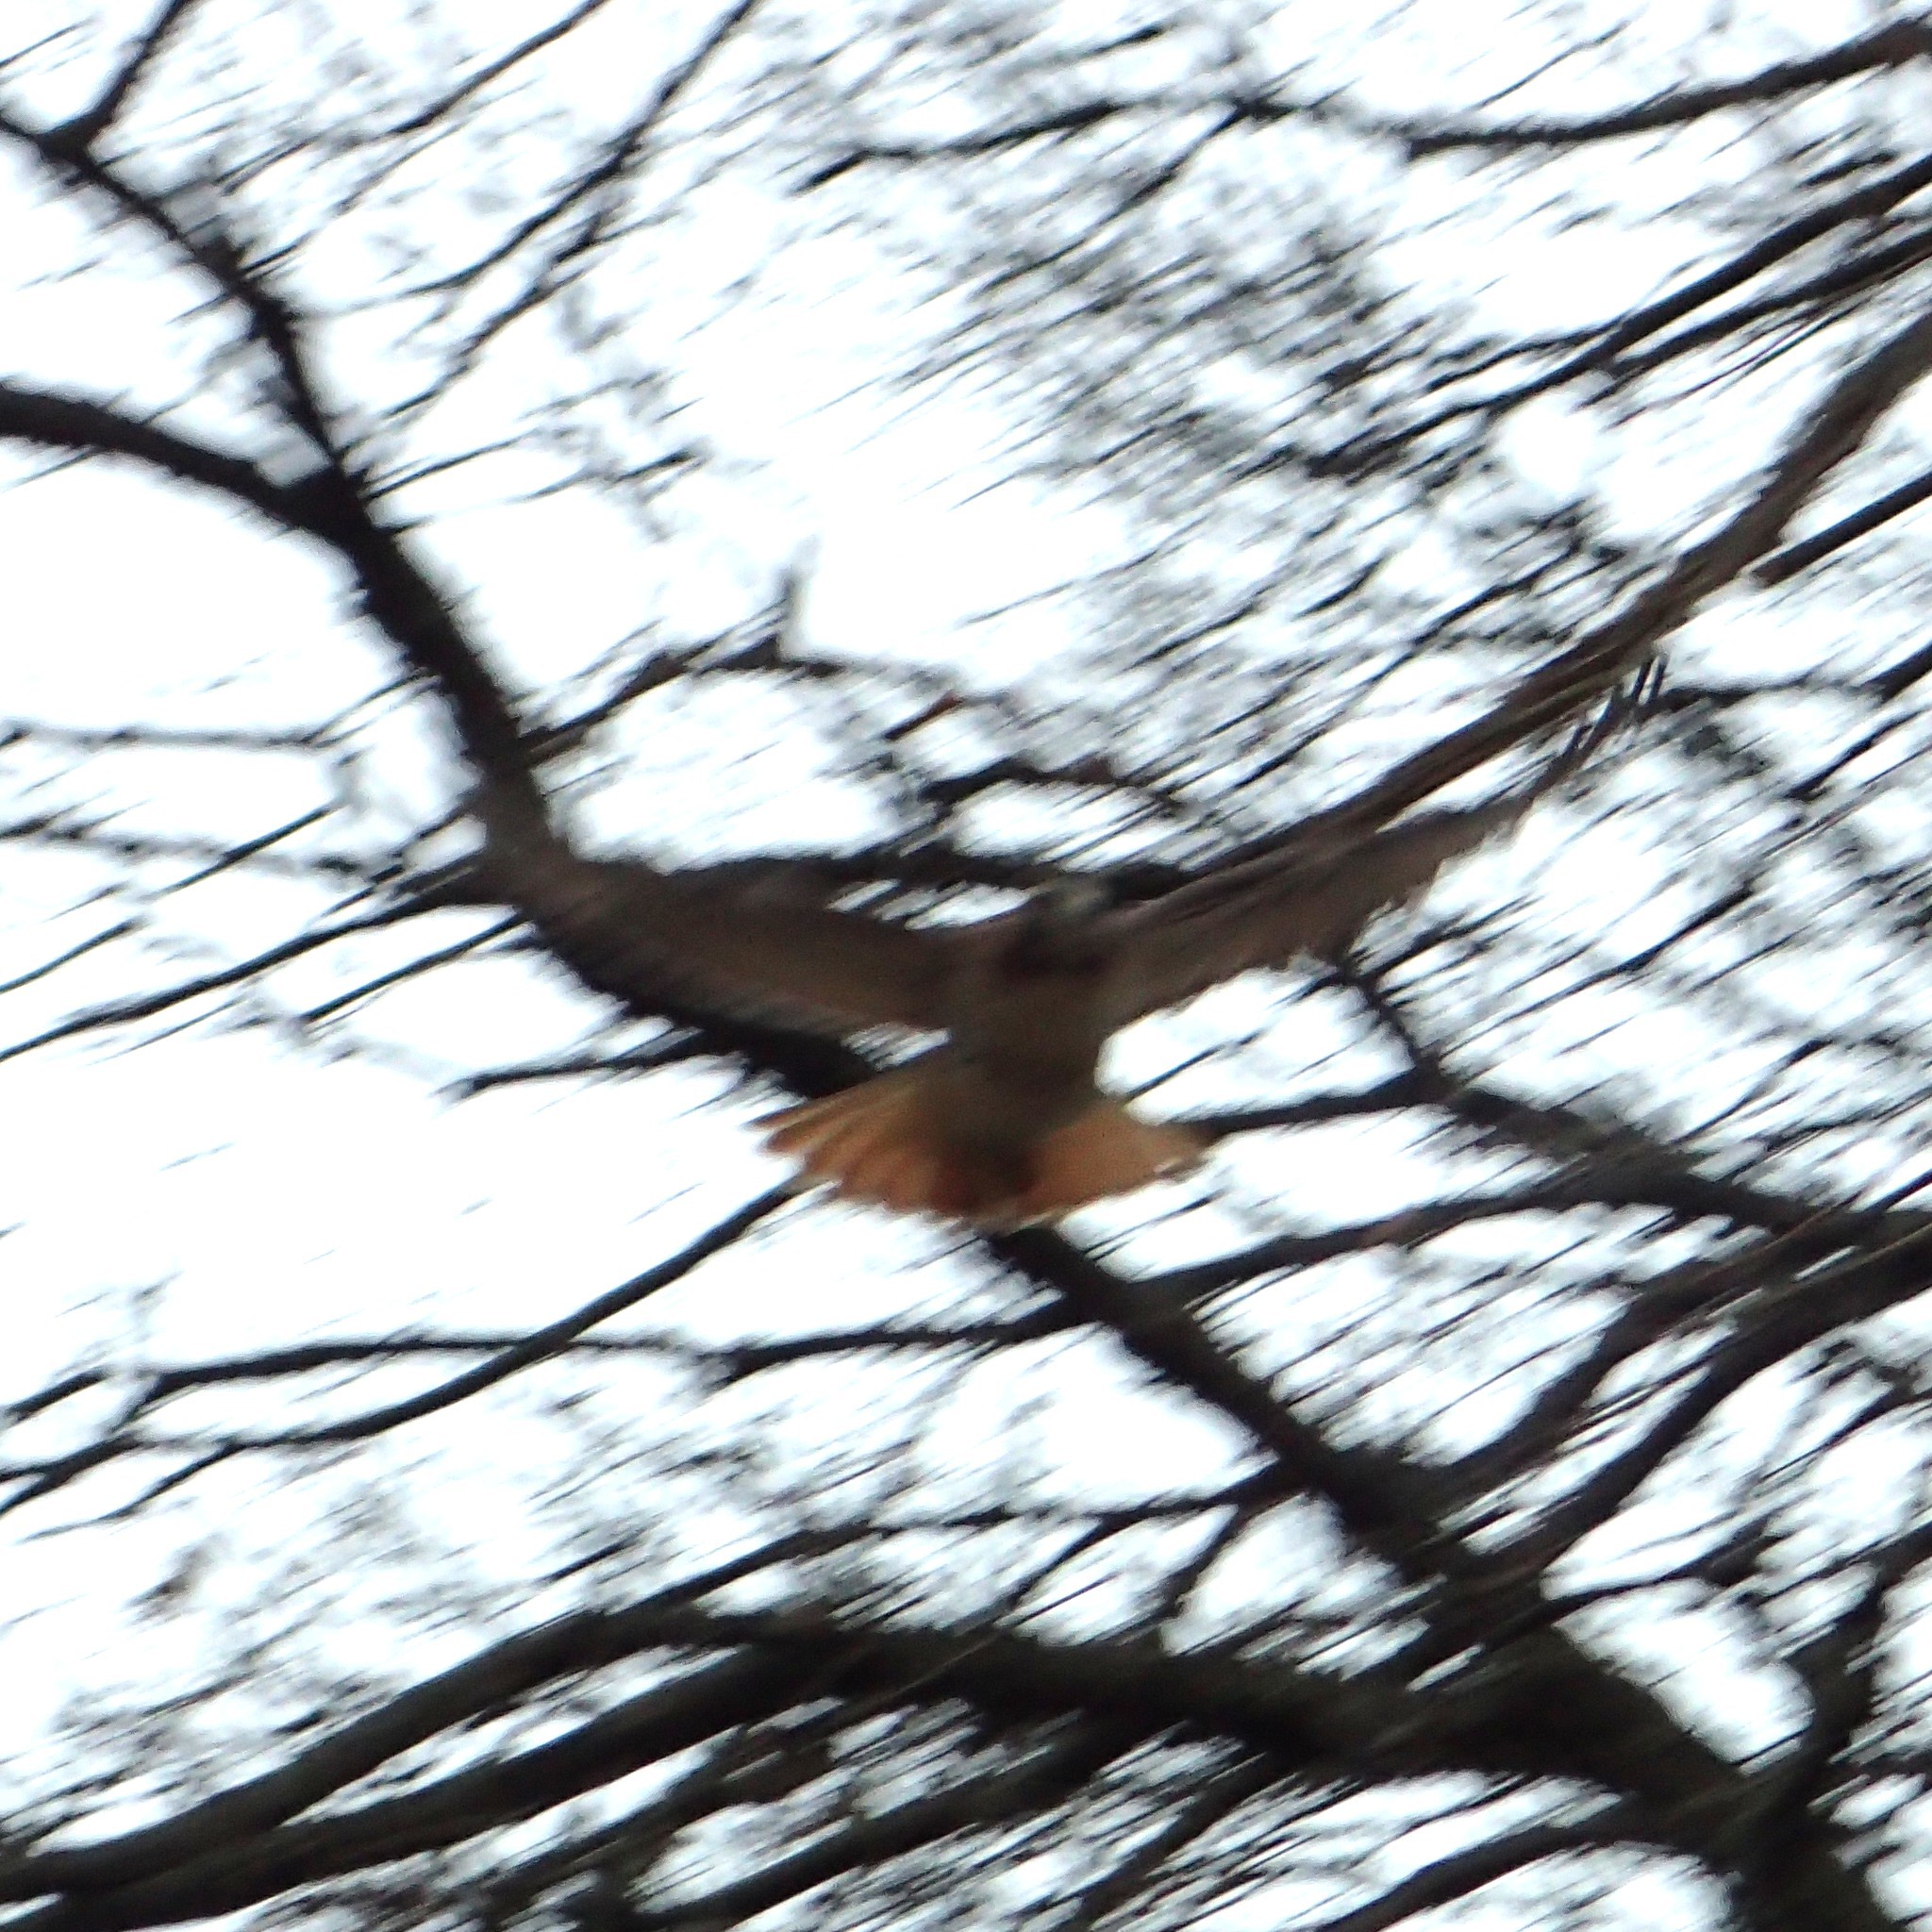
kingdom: Animalia
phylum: Chordata
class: Aves
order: Accipitriformes
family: Accipitridae
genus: Buteo
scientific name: Buteo jamaicensis
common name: Red-tailed hawk
